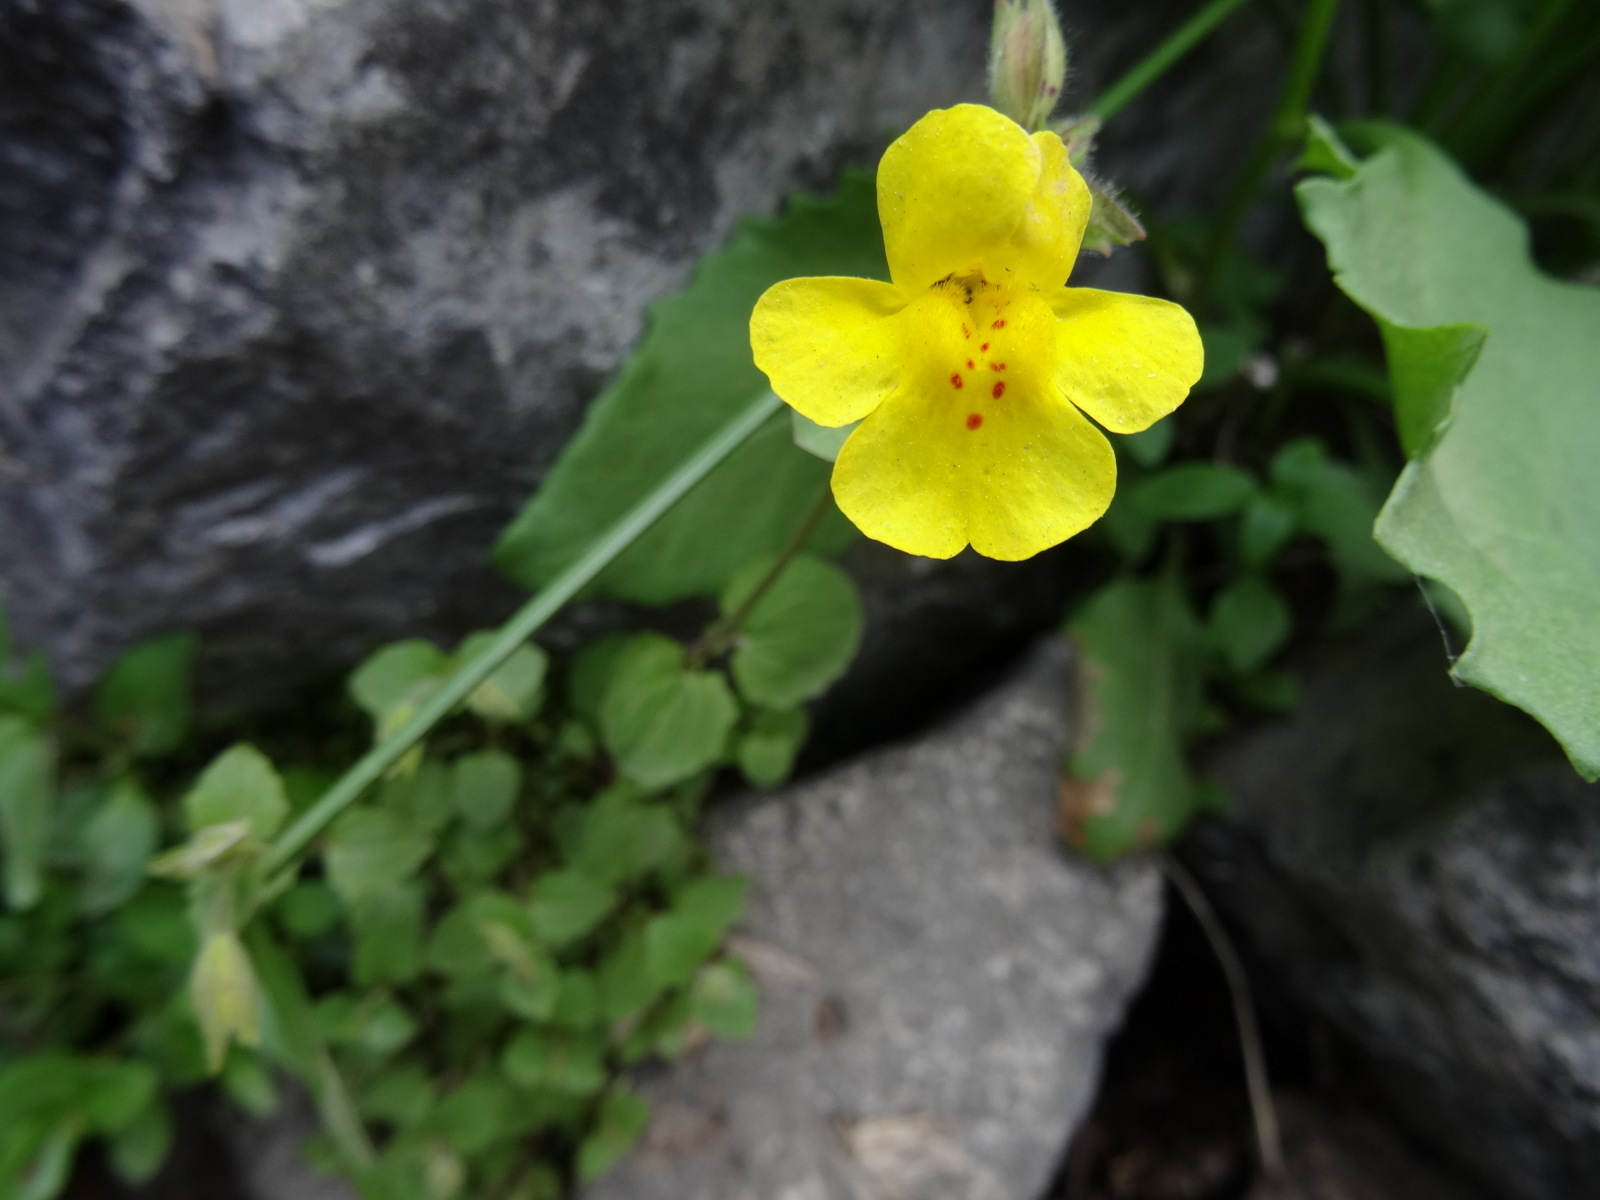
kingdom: Plantae
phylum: Tracheophyta
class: Magnoliopsida
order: Lamiales
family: Phrymaceae
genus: Erythranthe
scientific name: Erythranthe guttata
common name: Monkeyflower
